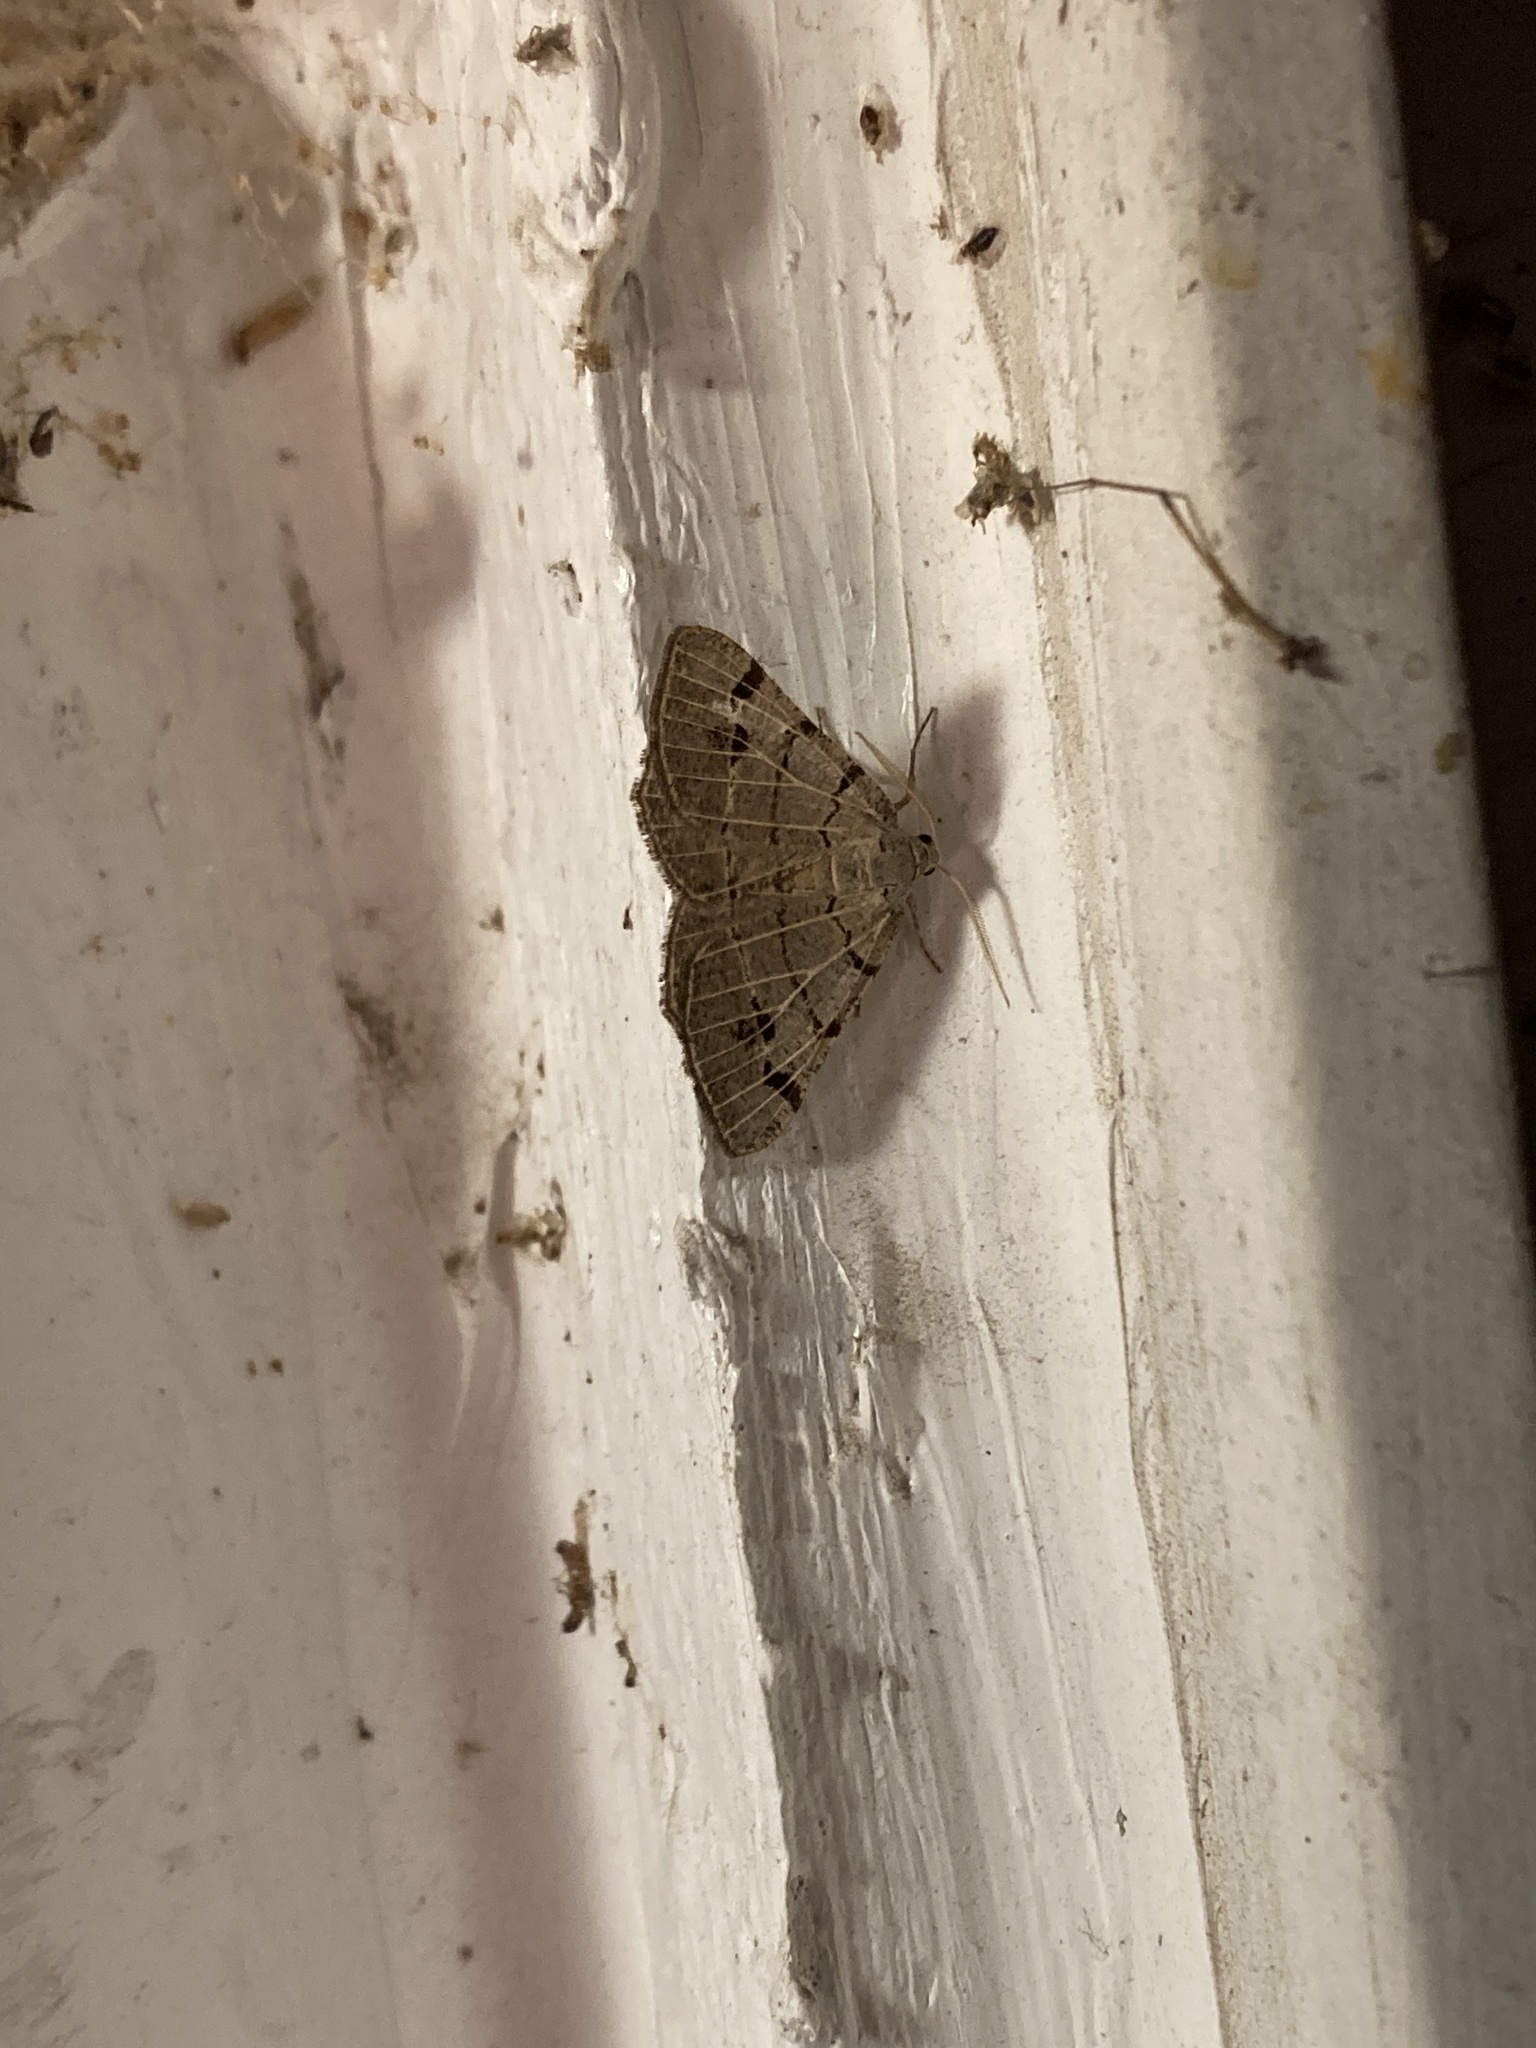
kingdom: Animalia
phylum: Arthropoda
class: Insecta
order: Lepidoptera
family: Geometridae
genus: Isturgia
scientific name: Isturgia dislocaria
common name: Pale-viened enconista
